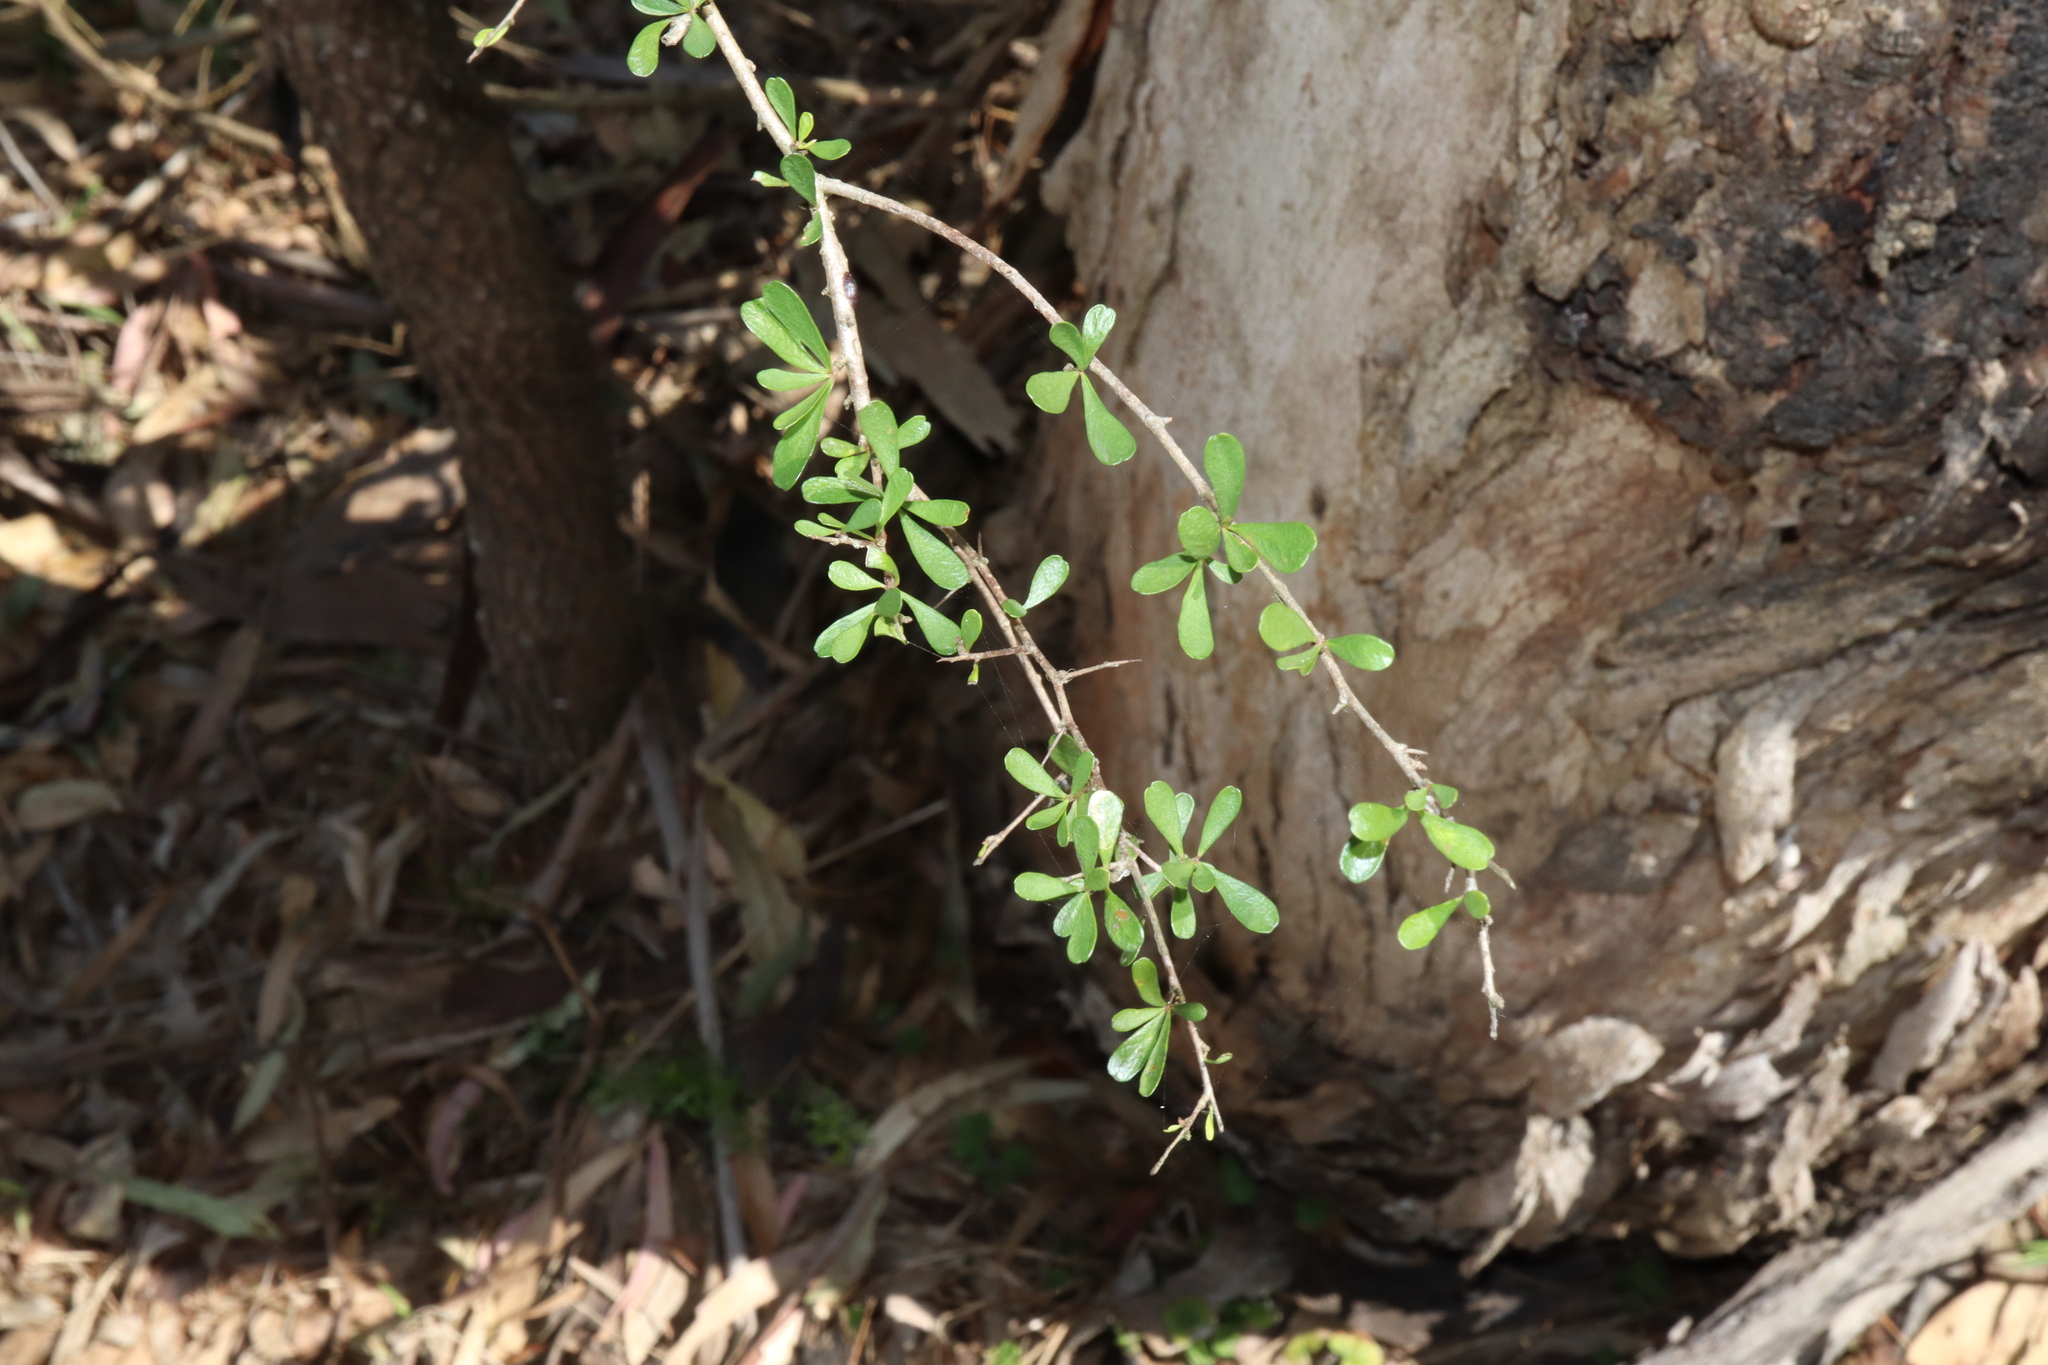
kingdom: Plantae
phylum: Tracheophyta
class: Magnoliopsida
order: Apiales
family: Pittosporaceae
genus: Bursaria
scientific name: Bursaria spinosa
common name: Australian blackthorn
